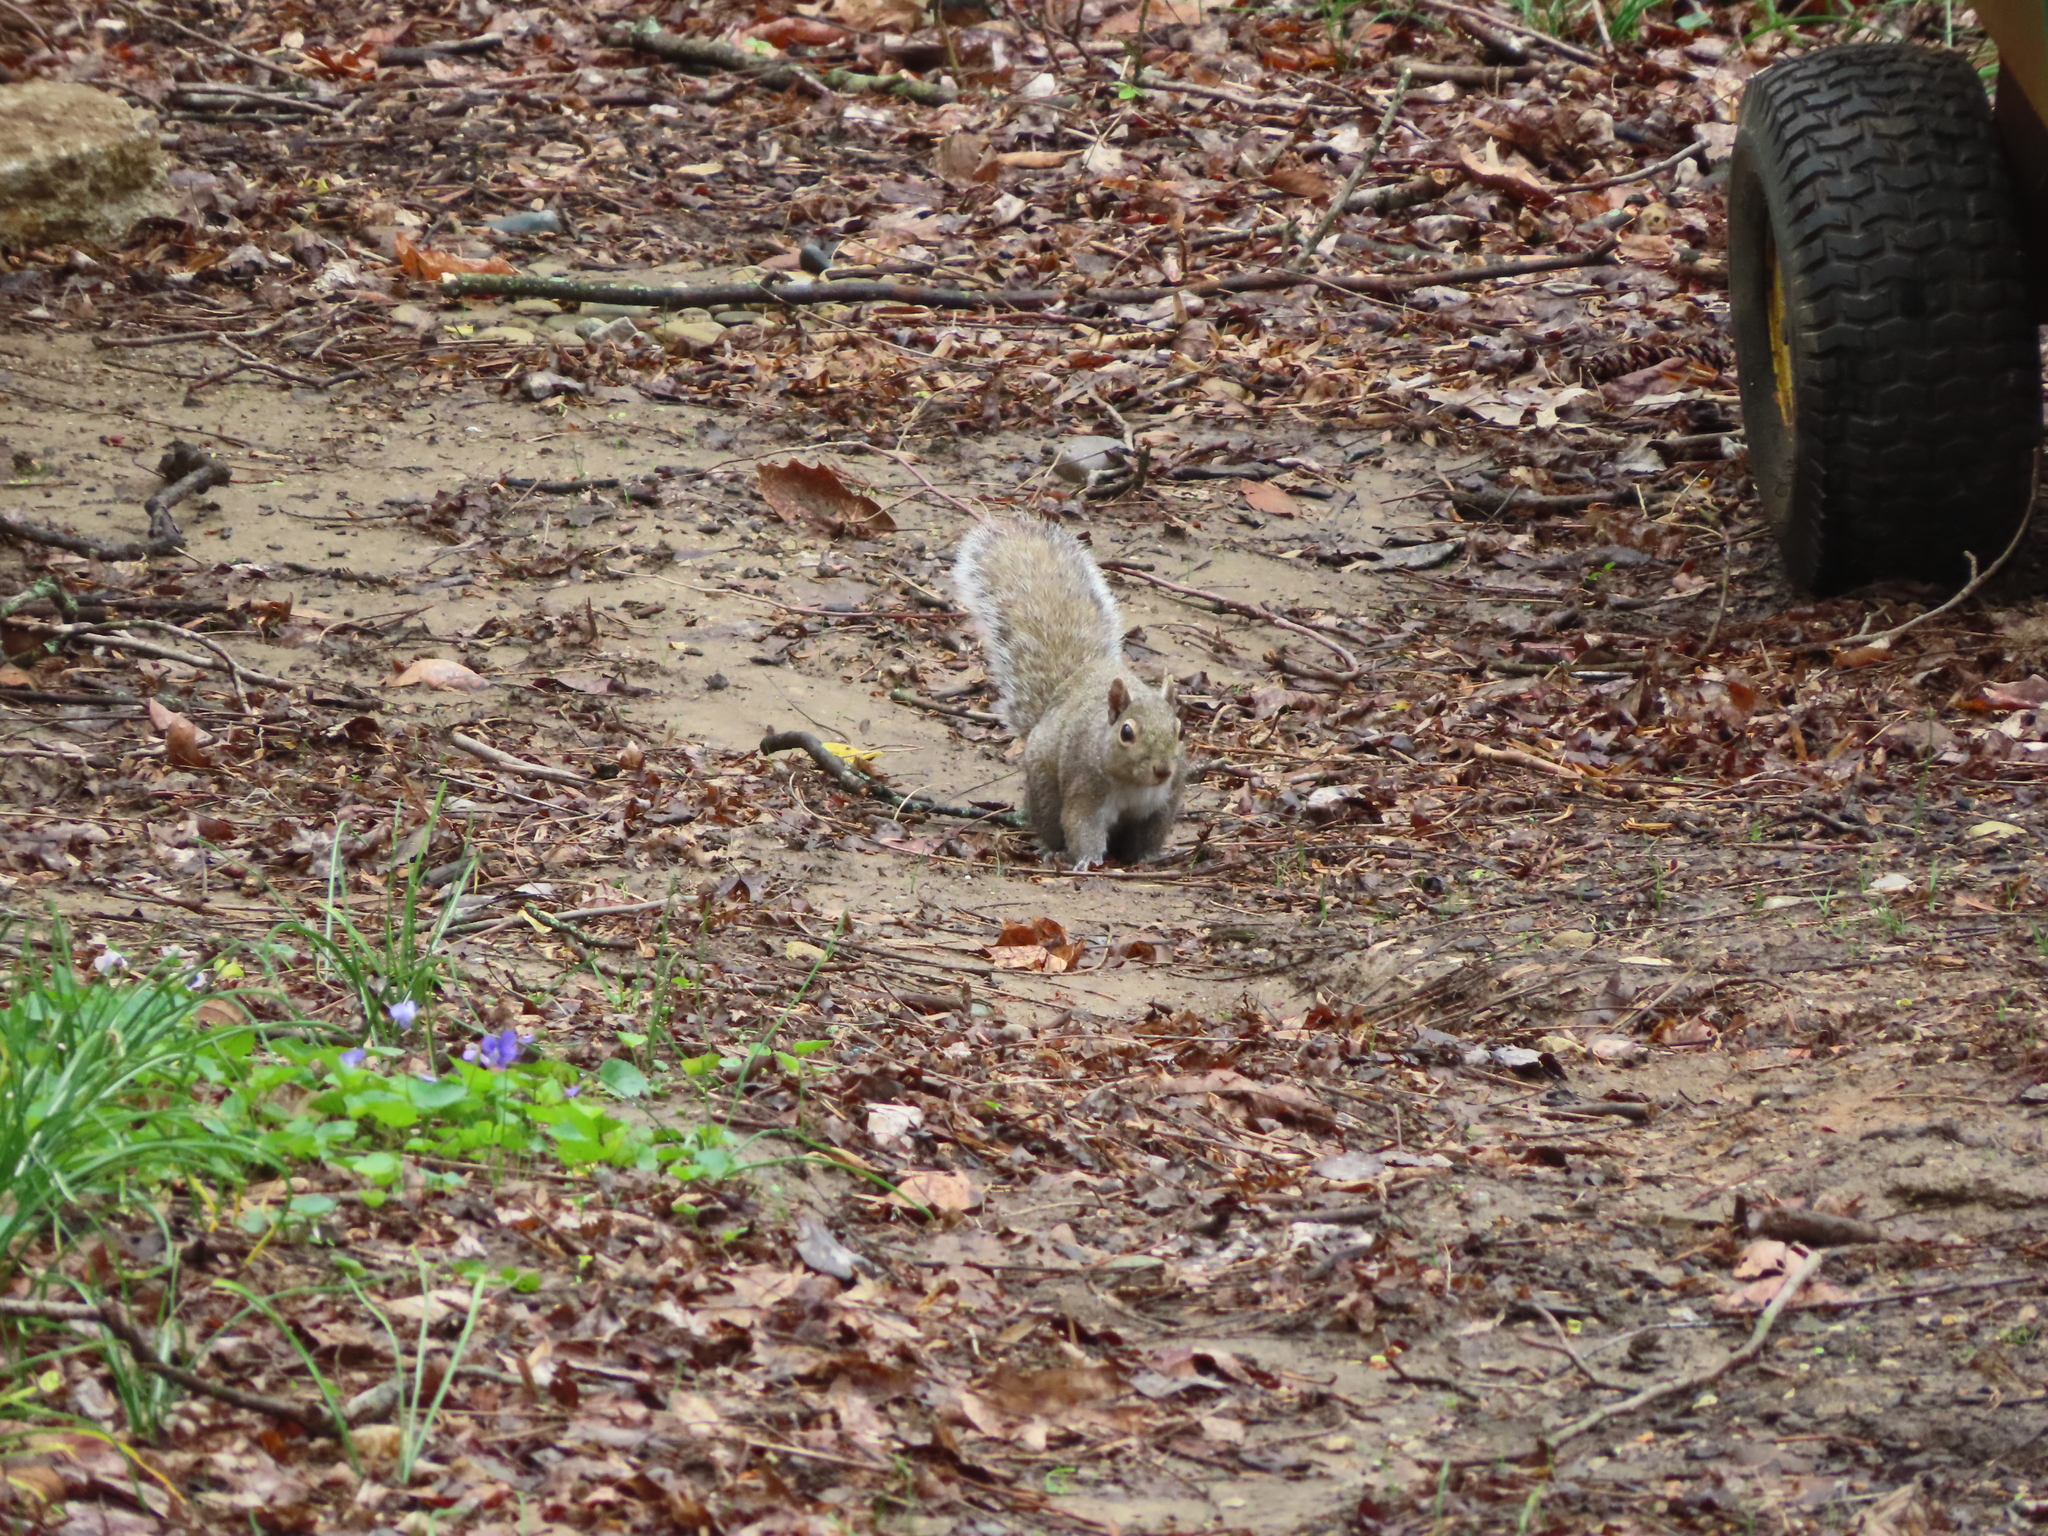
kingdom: Animalia
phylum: Chordata
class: Mammalia
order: Rodentia
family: Sciuridae
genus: Sciurus
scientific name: Sciurus carolinensis
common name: Eastern gray squirrel
